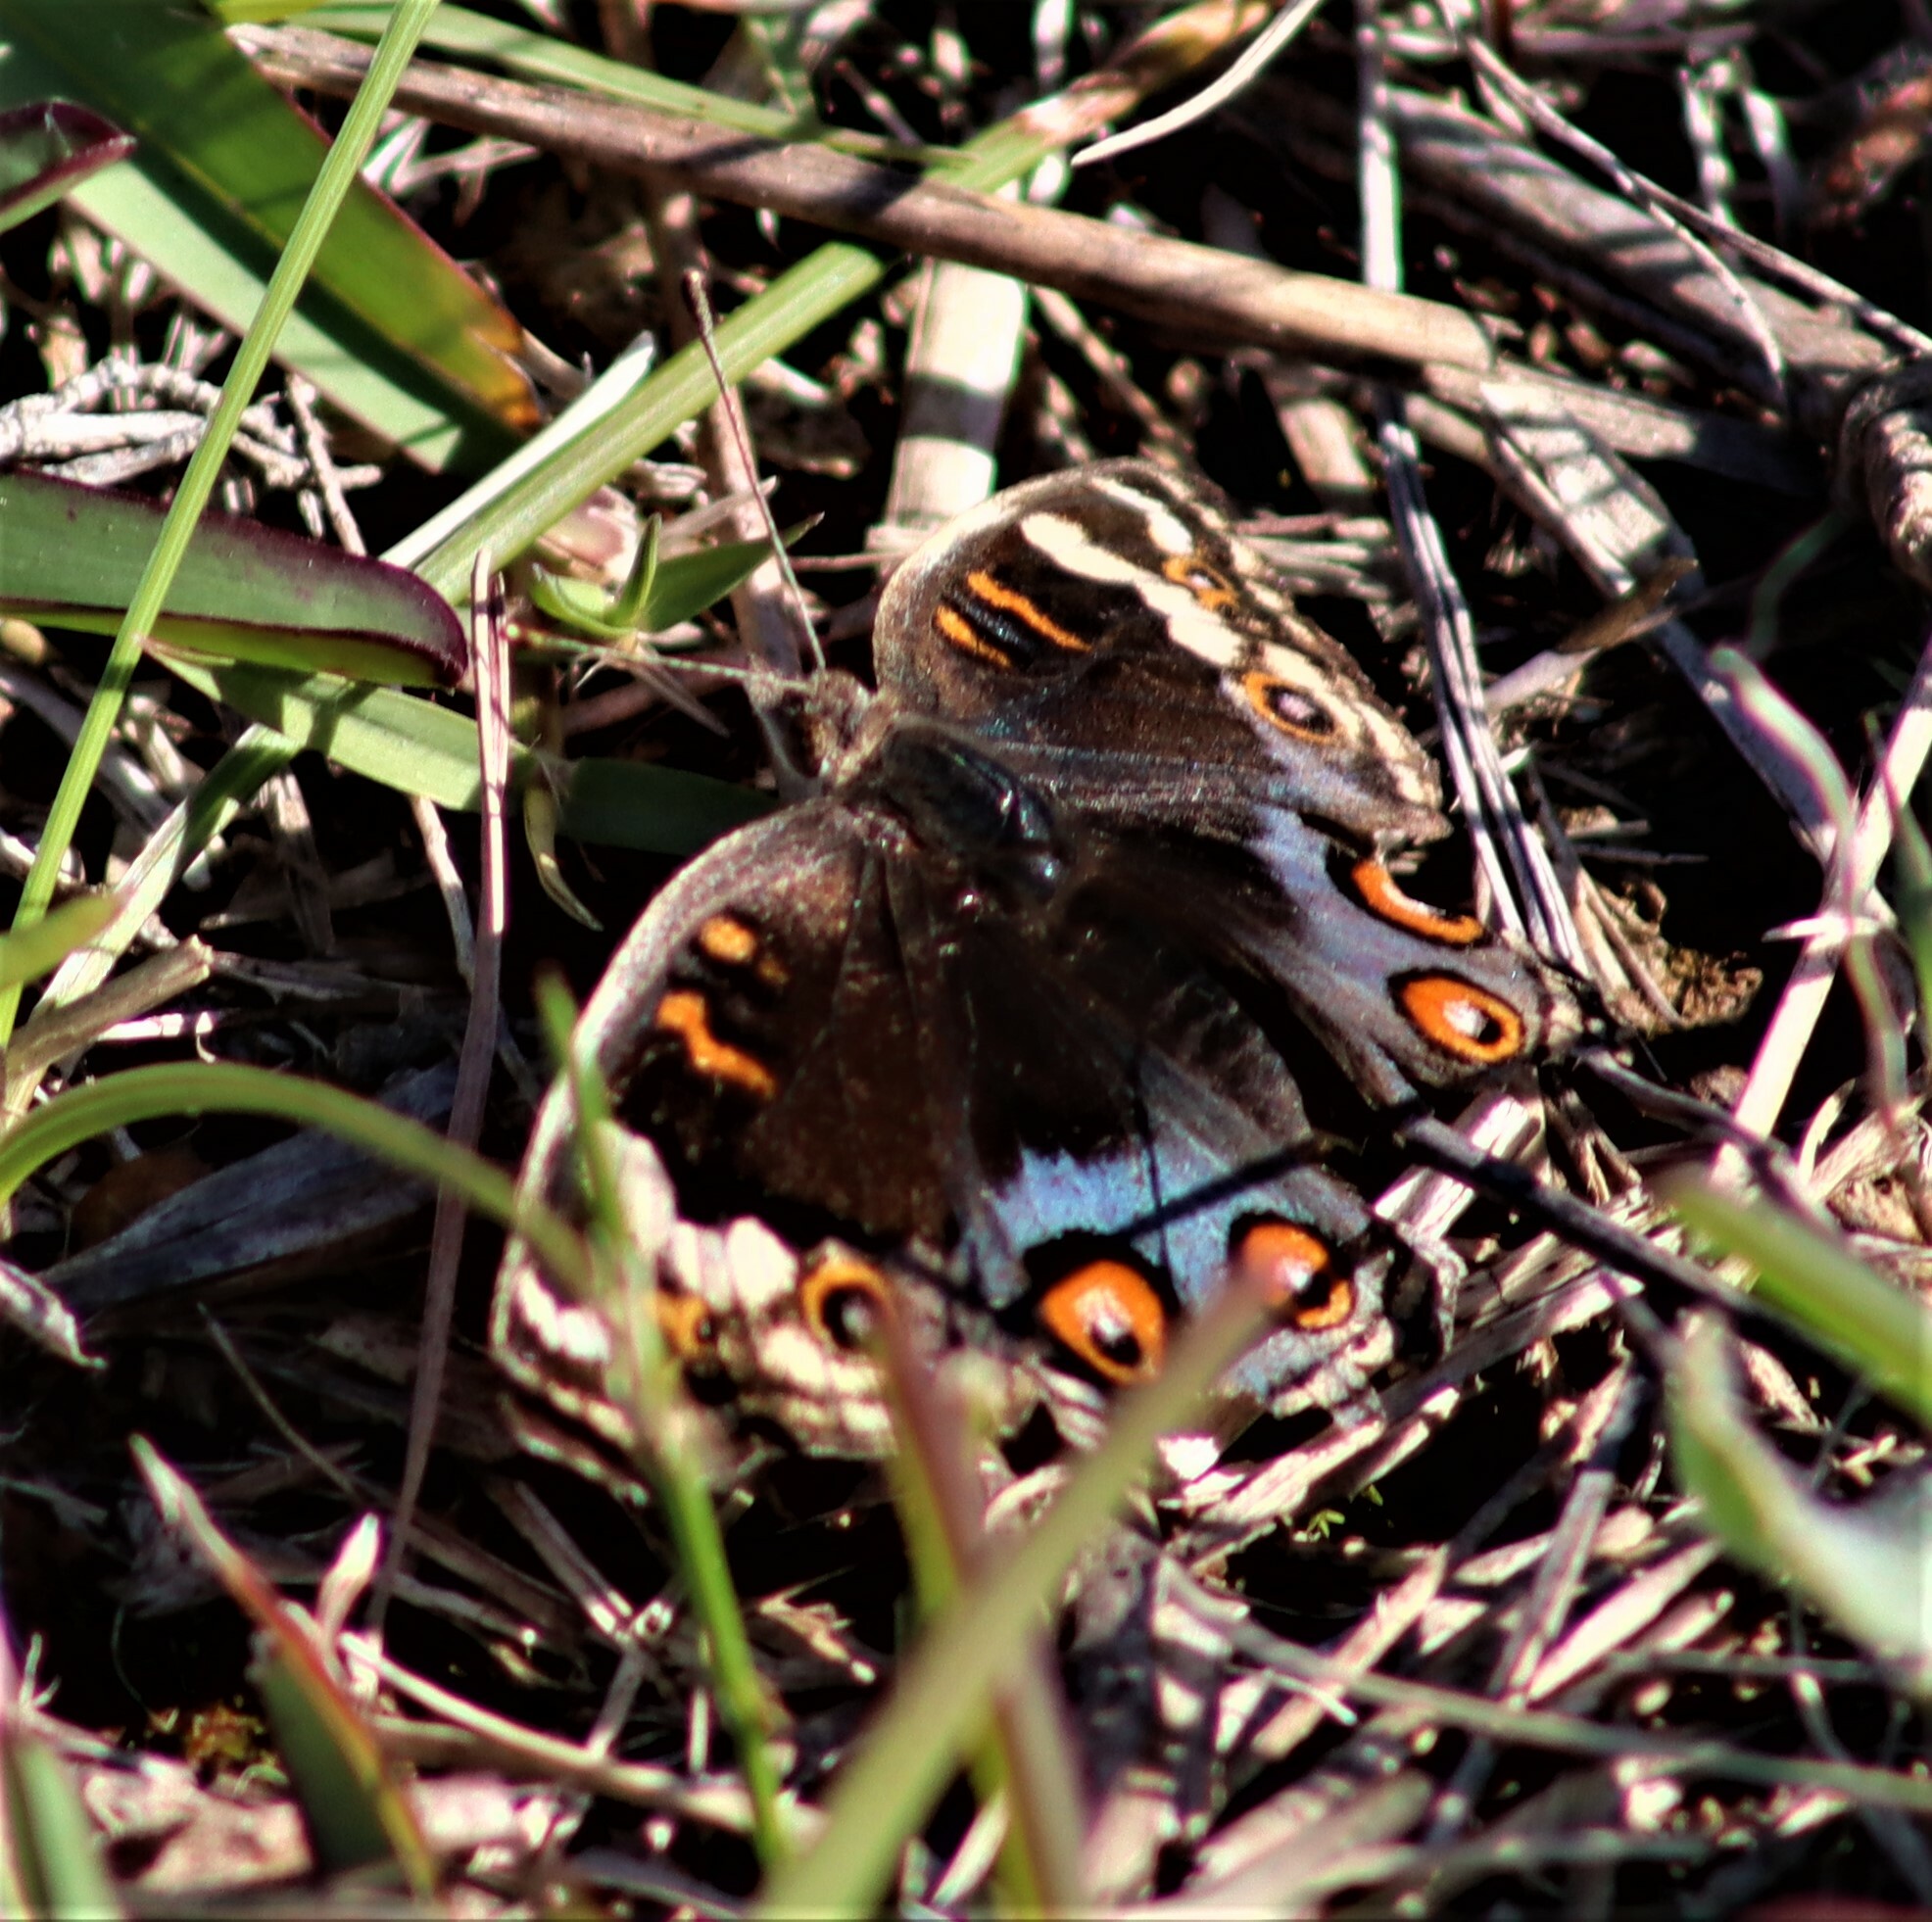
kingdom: Animalia
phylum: Arthropoda
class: Insecta
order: Lepidoptera
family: Nymphalidae
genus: Junonia
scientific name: Junonia orithya
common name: Blue pansy
